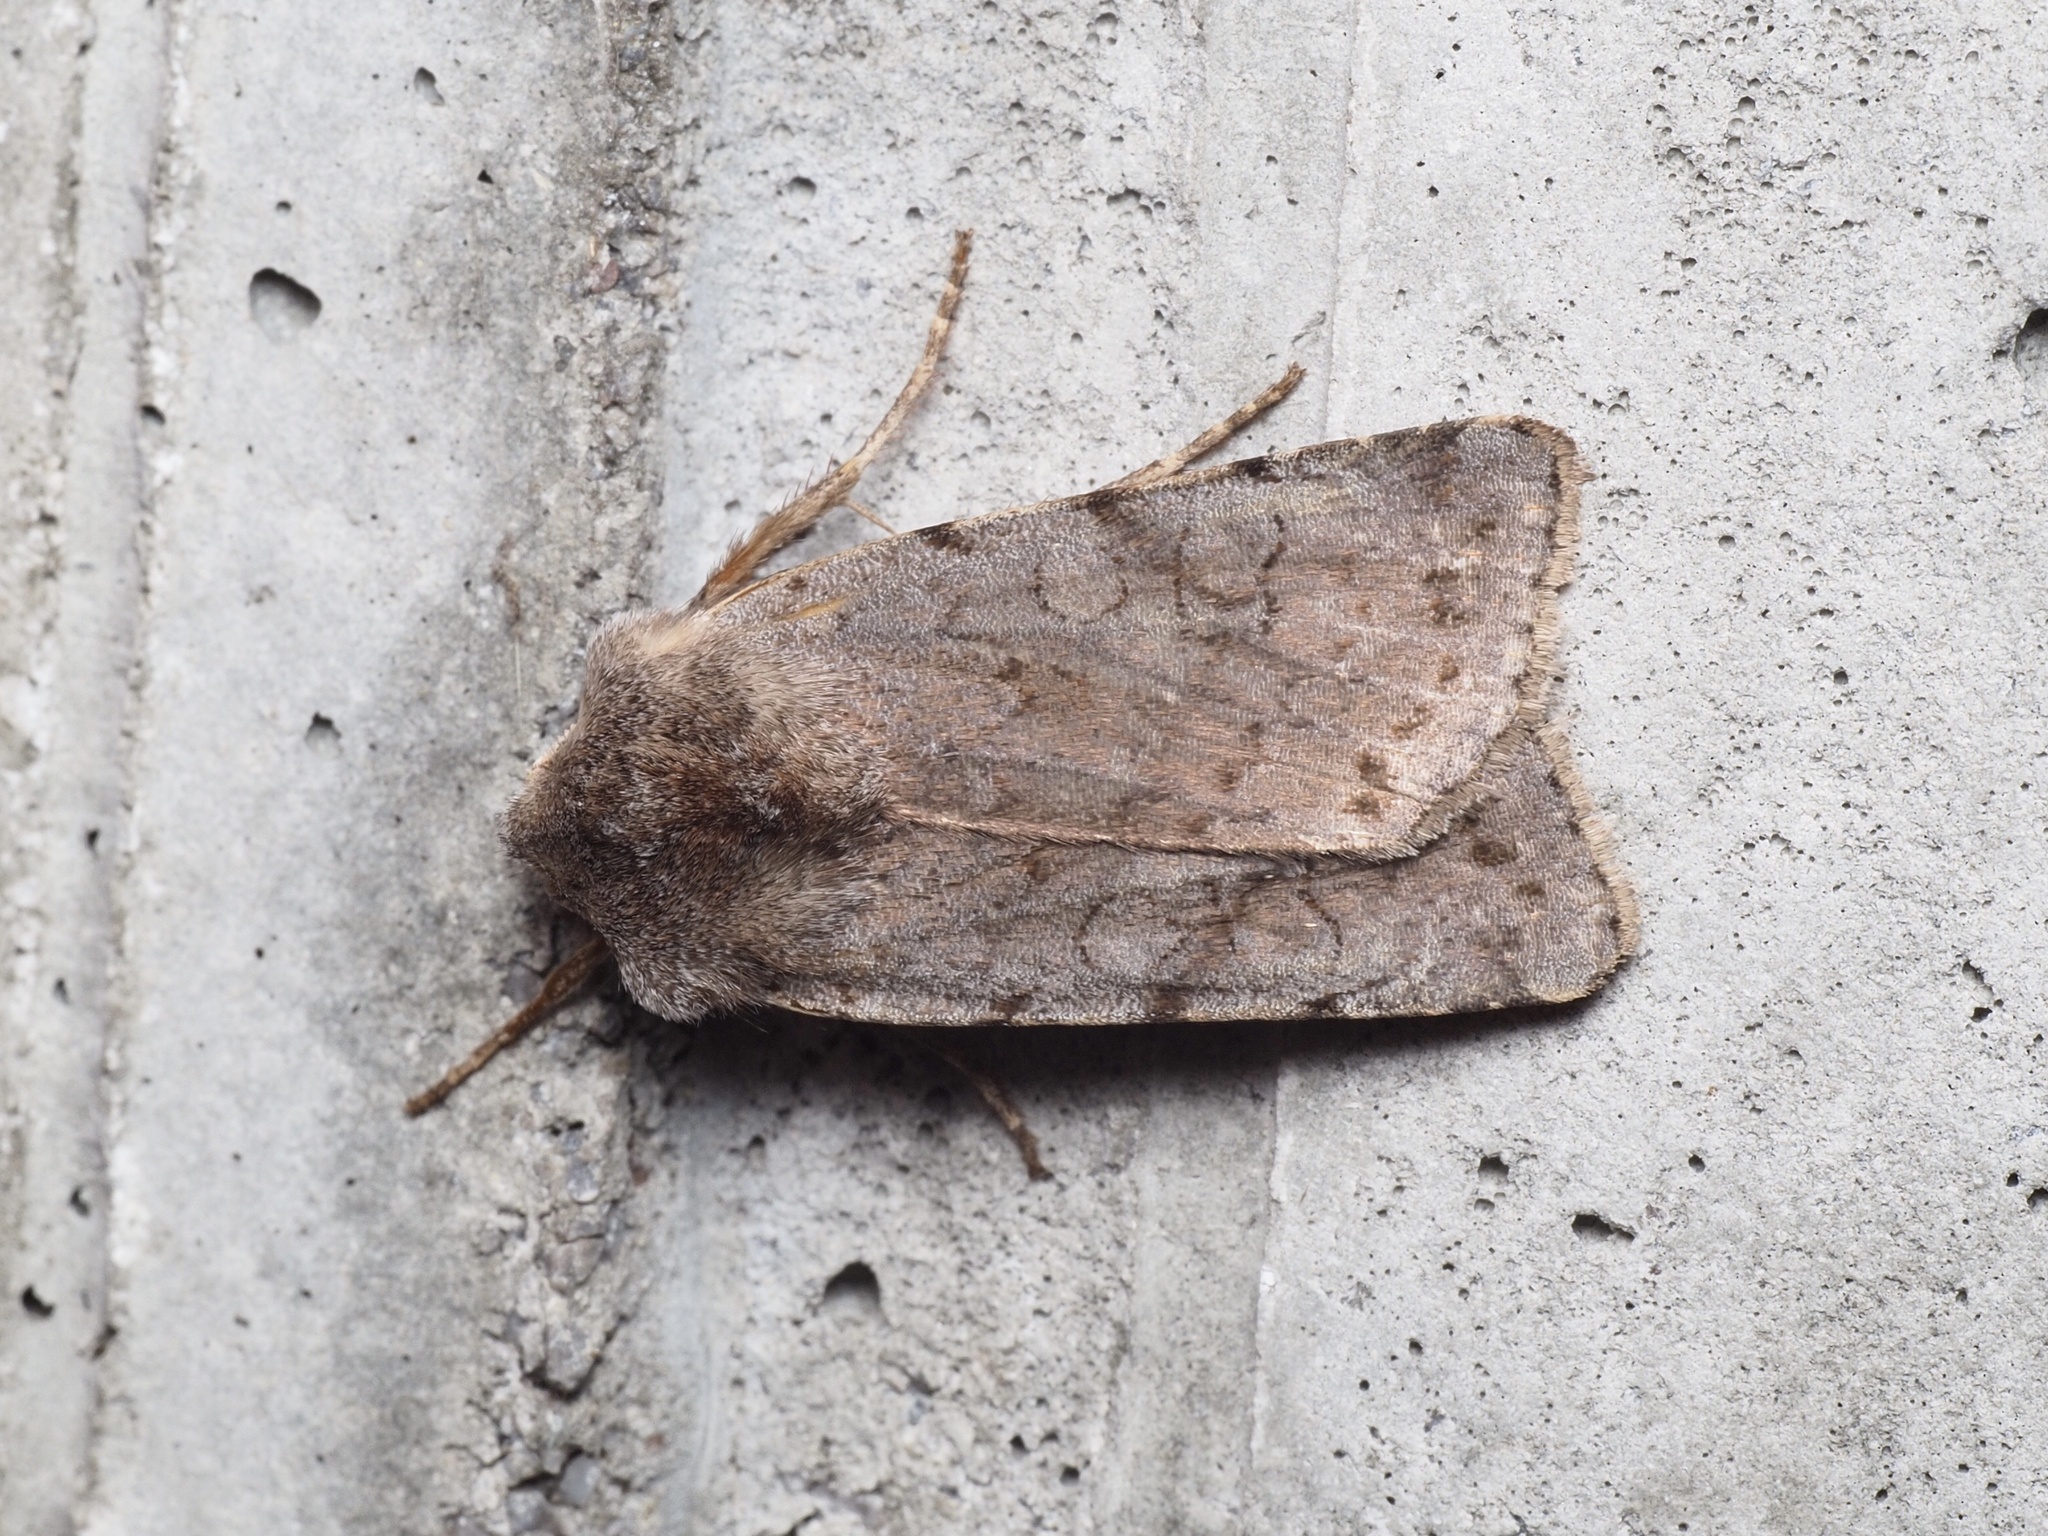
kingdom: Animalia
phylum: Arthropoda
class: Insecta
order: Lepidoptera
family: Noctuidae
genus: Cerastis
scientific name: Cerastis rubricosa
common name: Red chestnut
